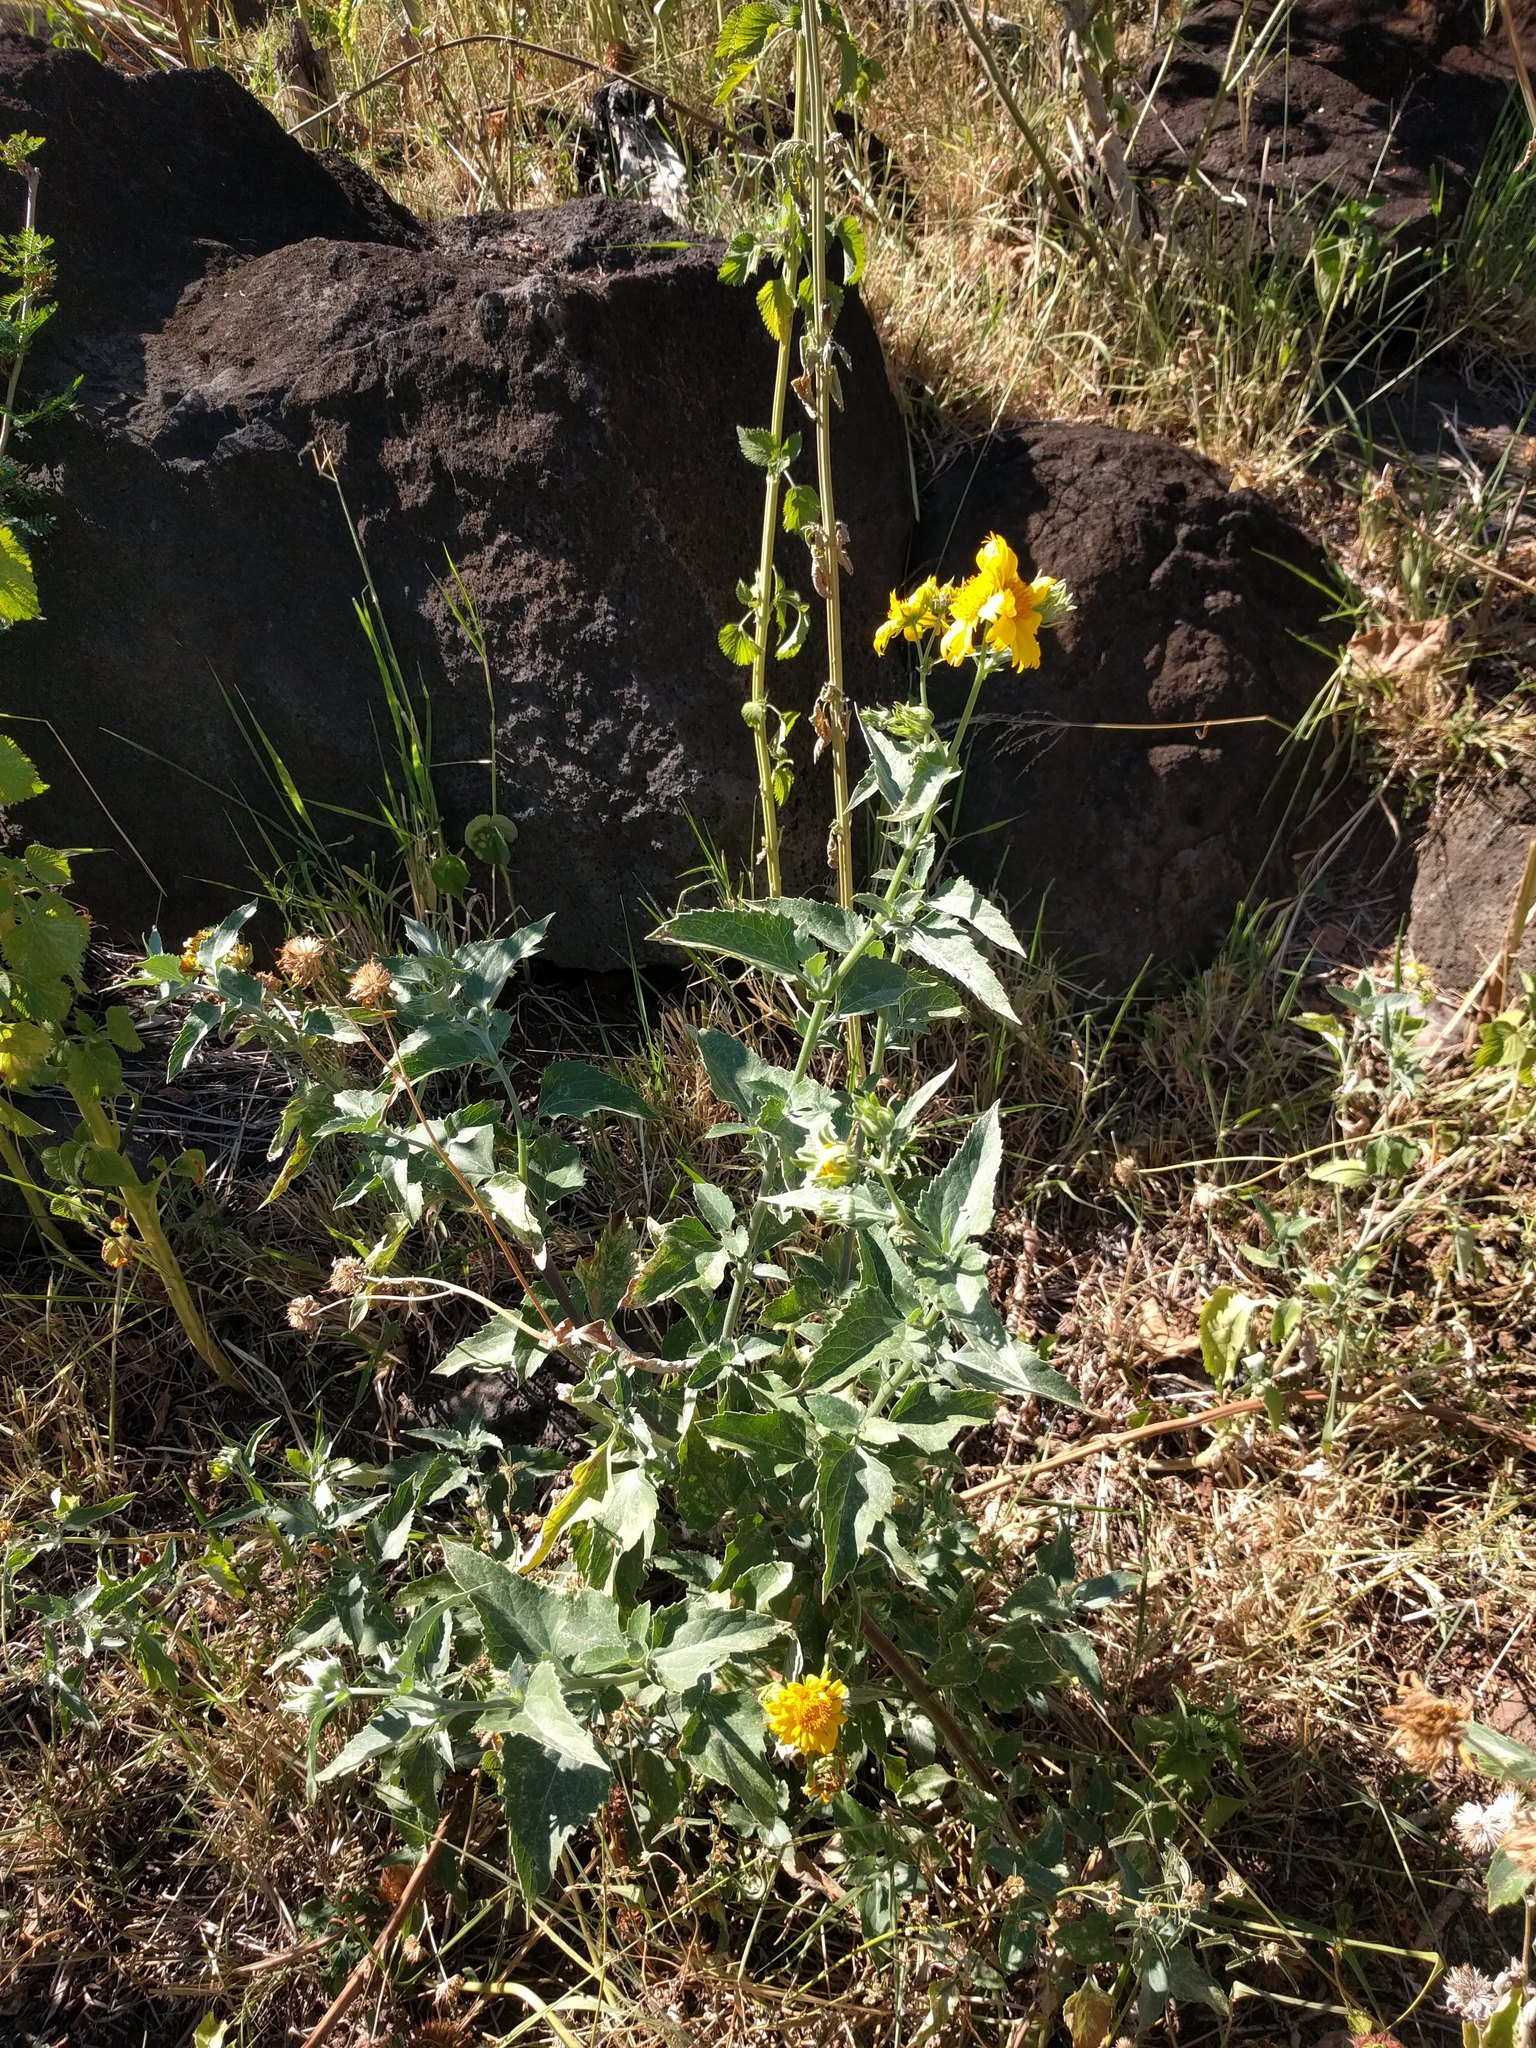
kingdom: Plantae
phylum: Tracheophyta
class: Magnoliopsida
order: Asterales
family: Asteraceae
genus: Verbesina
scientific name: Verbesina encelioides
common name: Golden crownbeard
